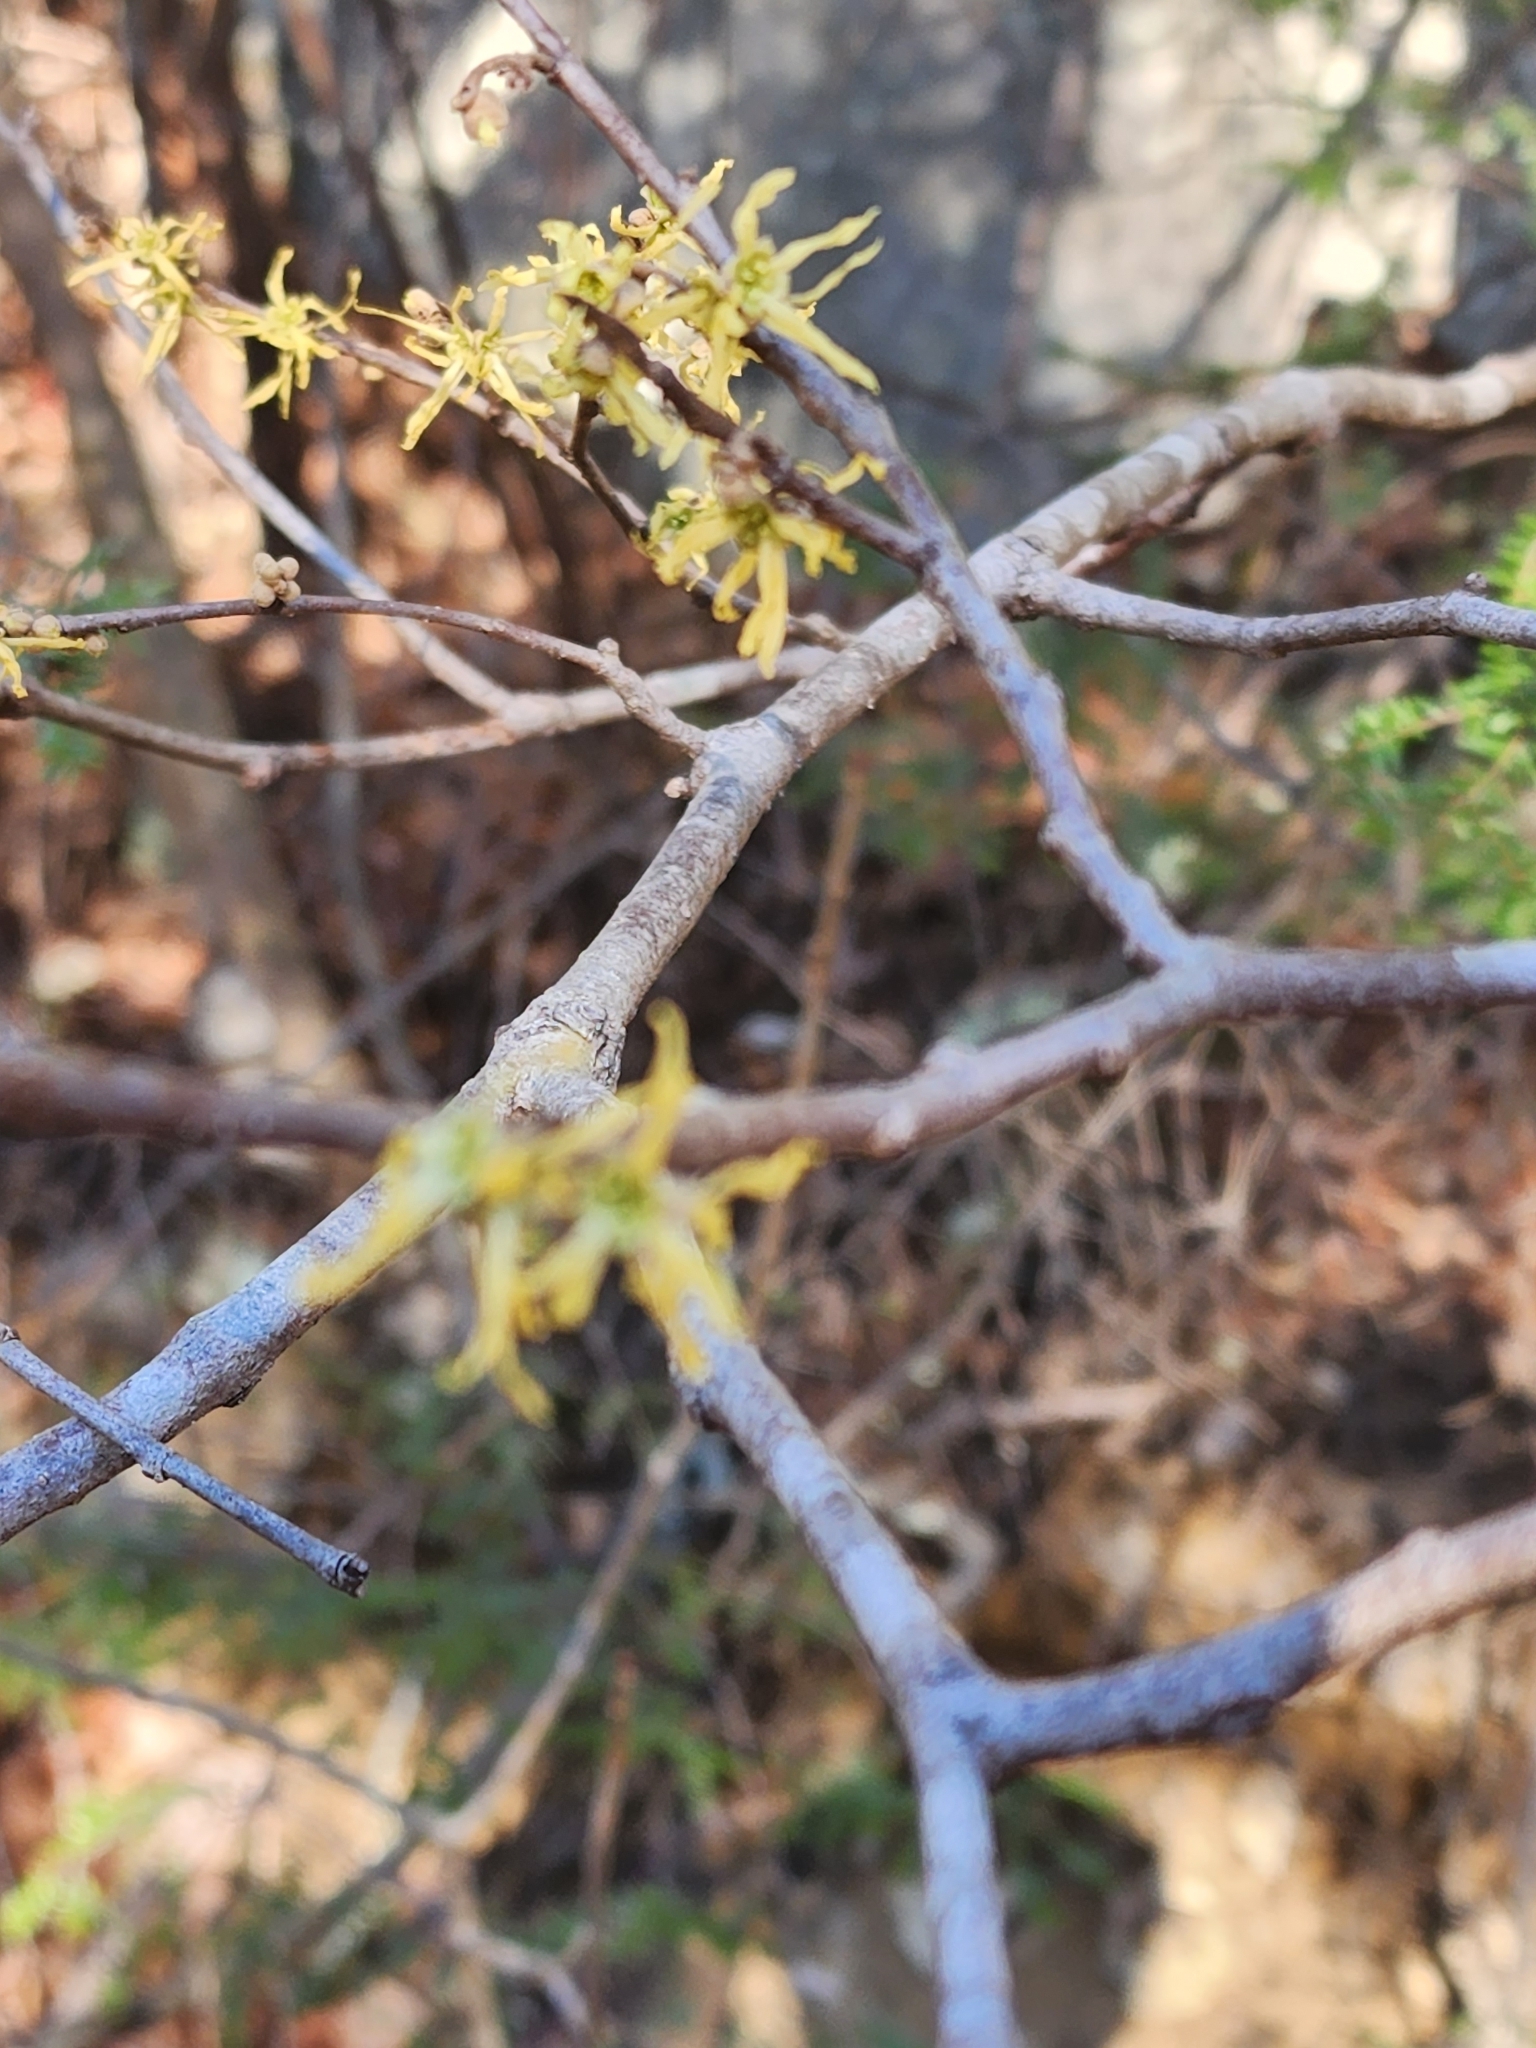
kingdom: Plantae
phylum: Tracheophyta
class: Magnoliopsida
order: Saxifragales
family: Hamamelidaceae
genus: Hamamelis
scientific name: Hamamelis virginiana
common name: Witch-hazel
